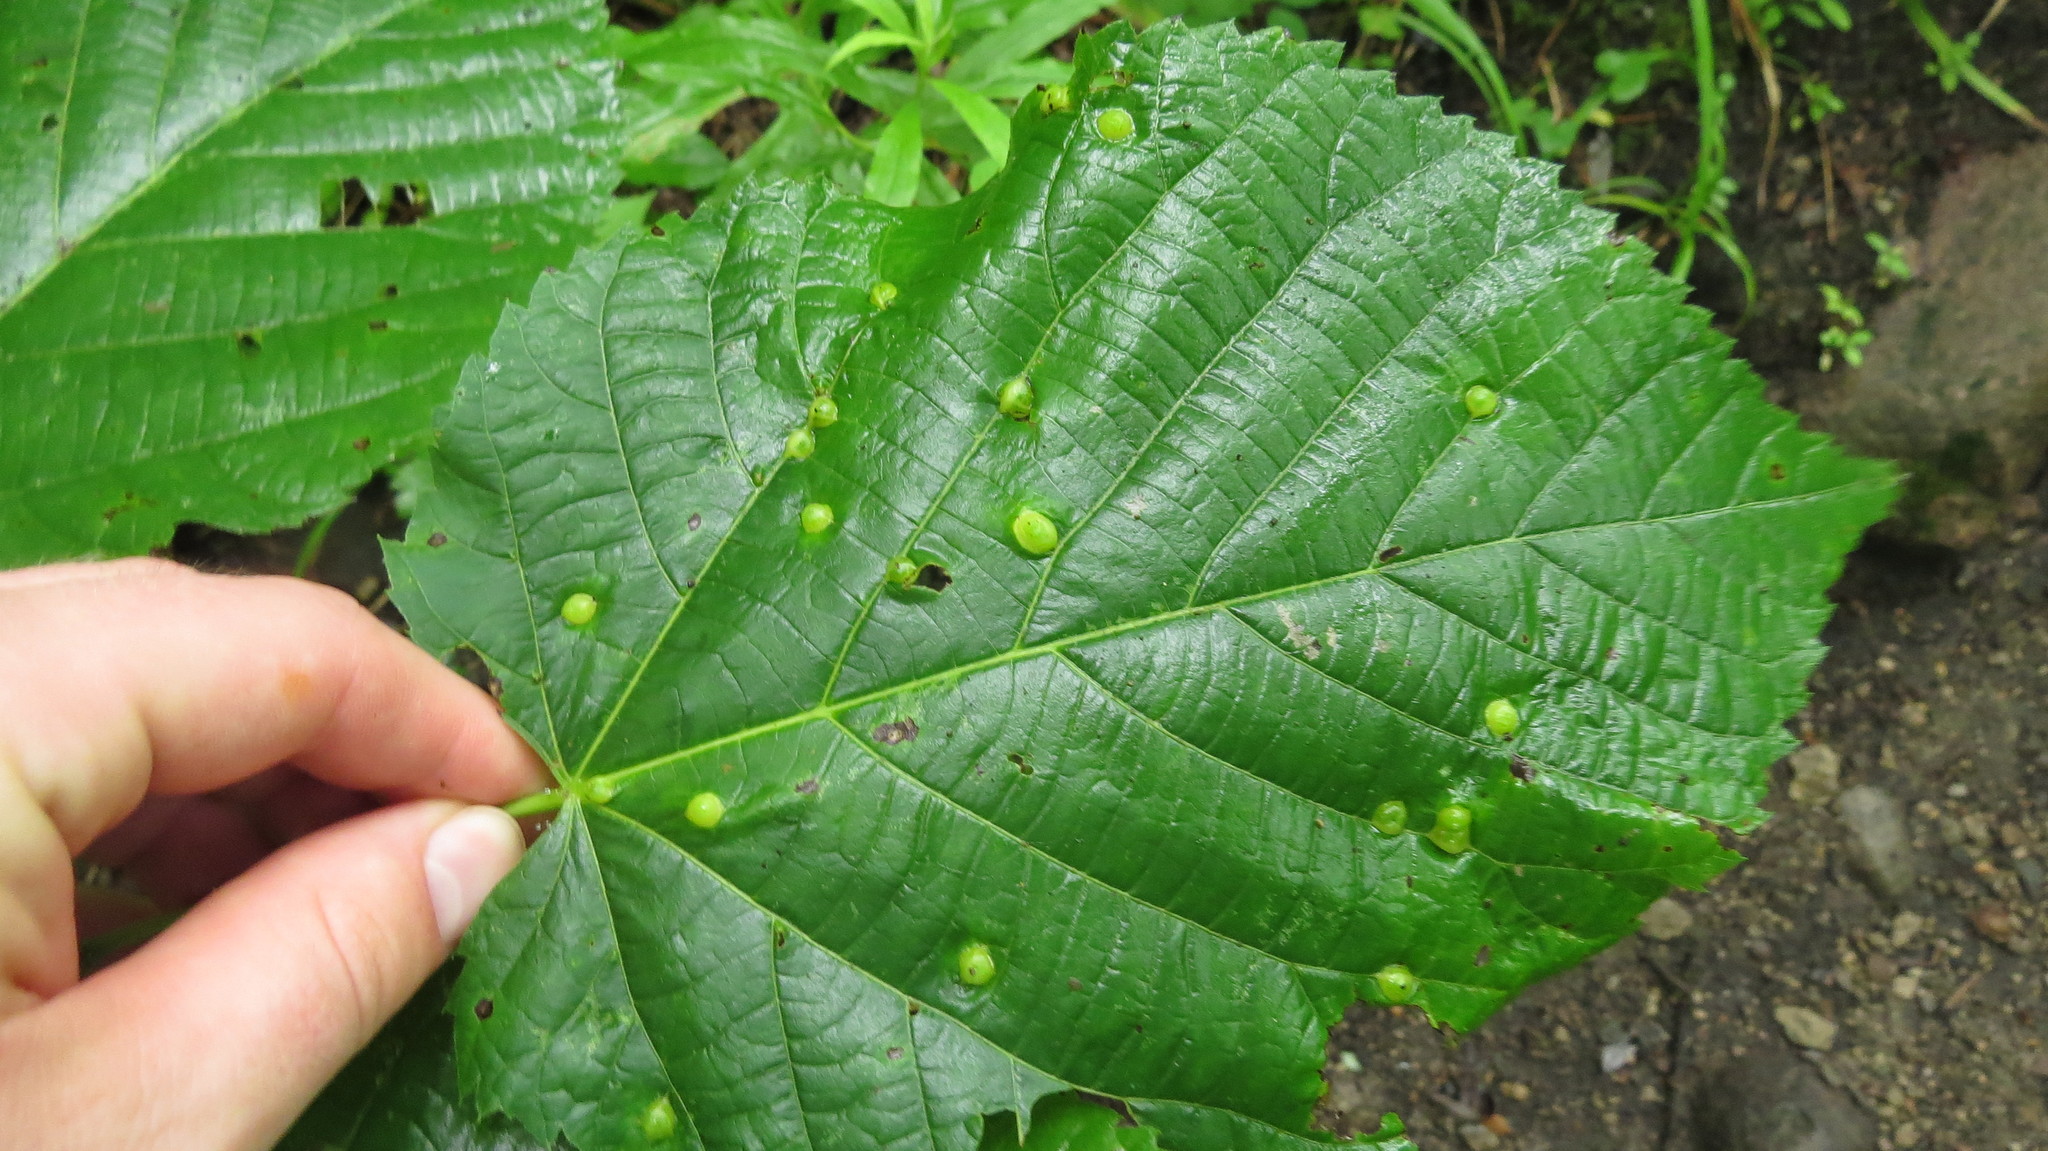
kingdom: Animalia
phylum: Arthropoda
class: Insecta
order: Diptera
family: Cecidomyiidae
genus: Contarinia
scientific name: Contarinia verrucicola
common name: Linden wart gall midge
